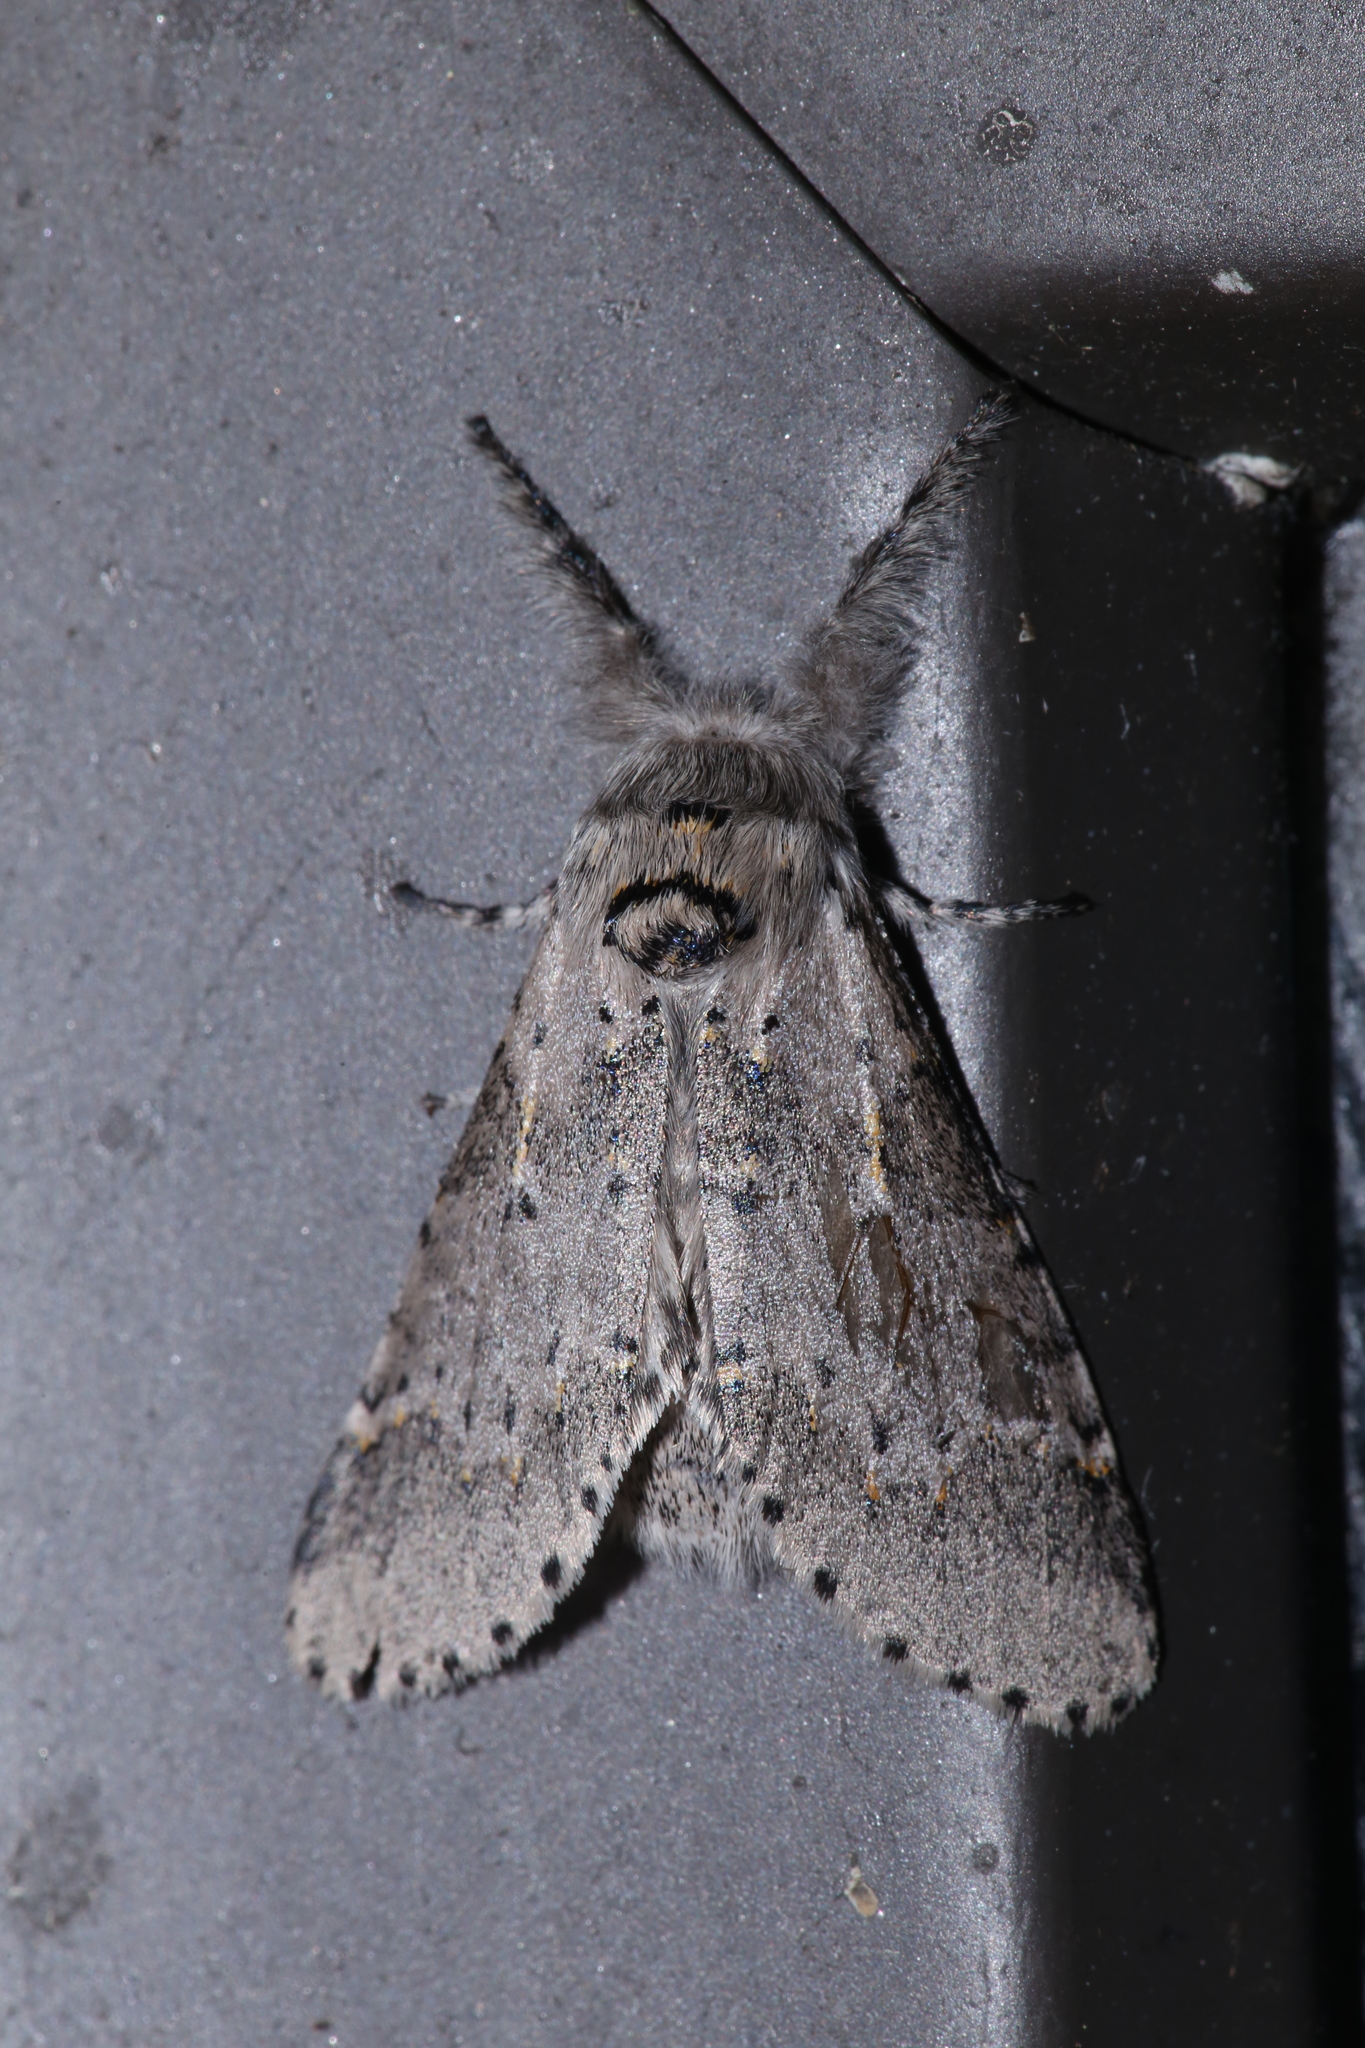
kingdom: Animalia
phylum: Arthropoda
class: Insecta
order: Lepidoptera
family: Notodontidae
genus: Furcula
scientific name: Furcula cinerea
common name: Gray furcula
